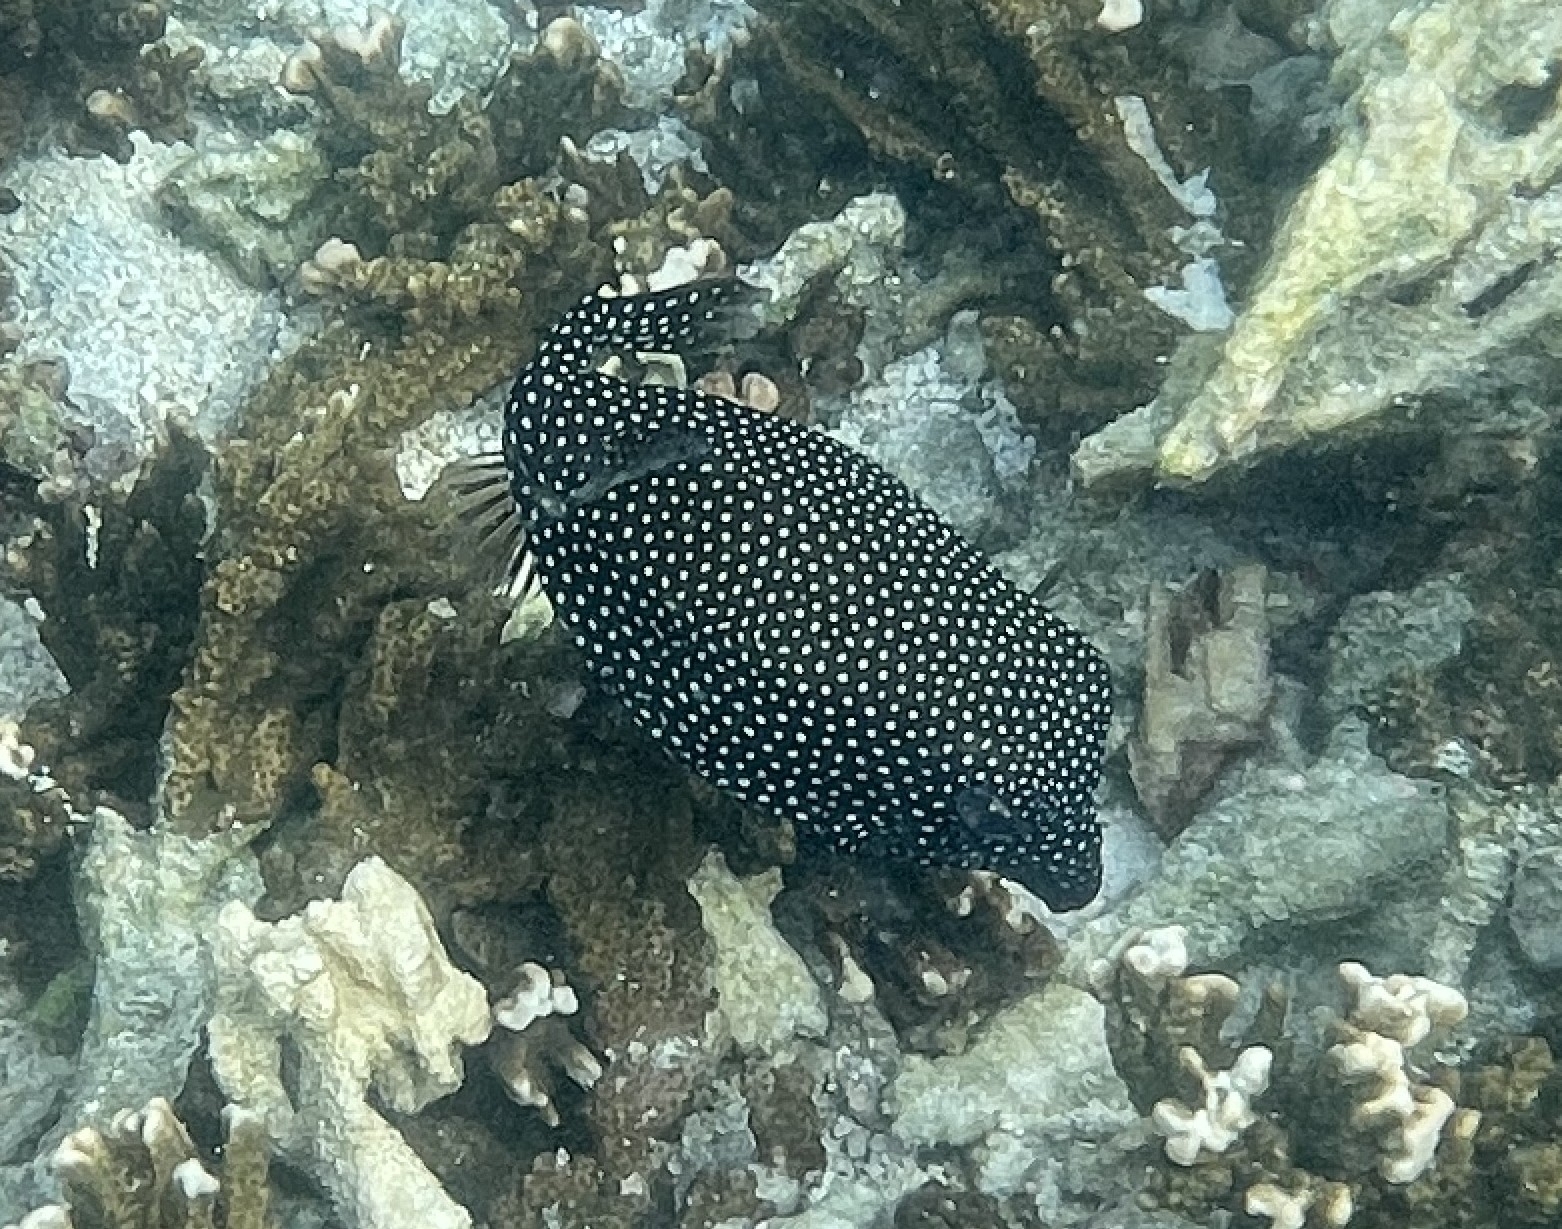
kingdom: Animalia
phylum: Chordata
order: Tetraodontiformes
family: Ostraciidae
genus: Ostracion
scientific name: Ostracion meleagris
